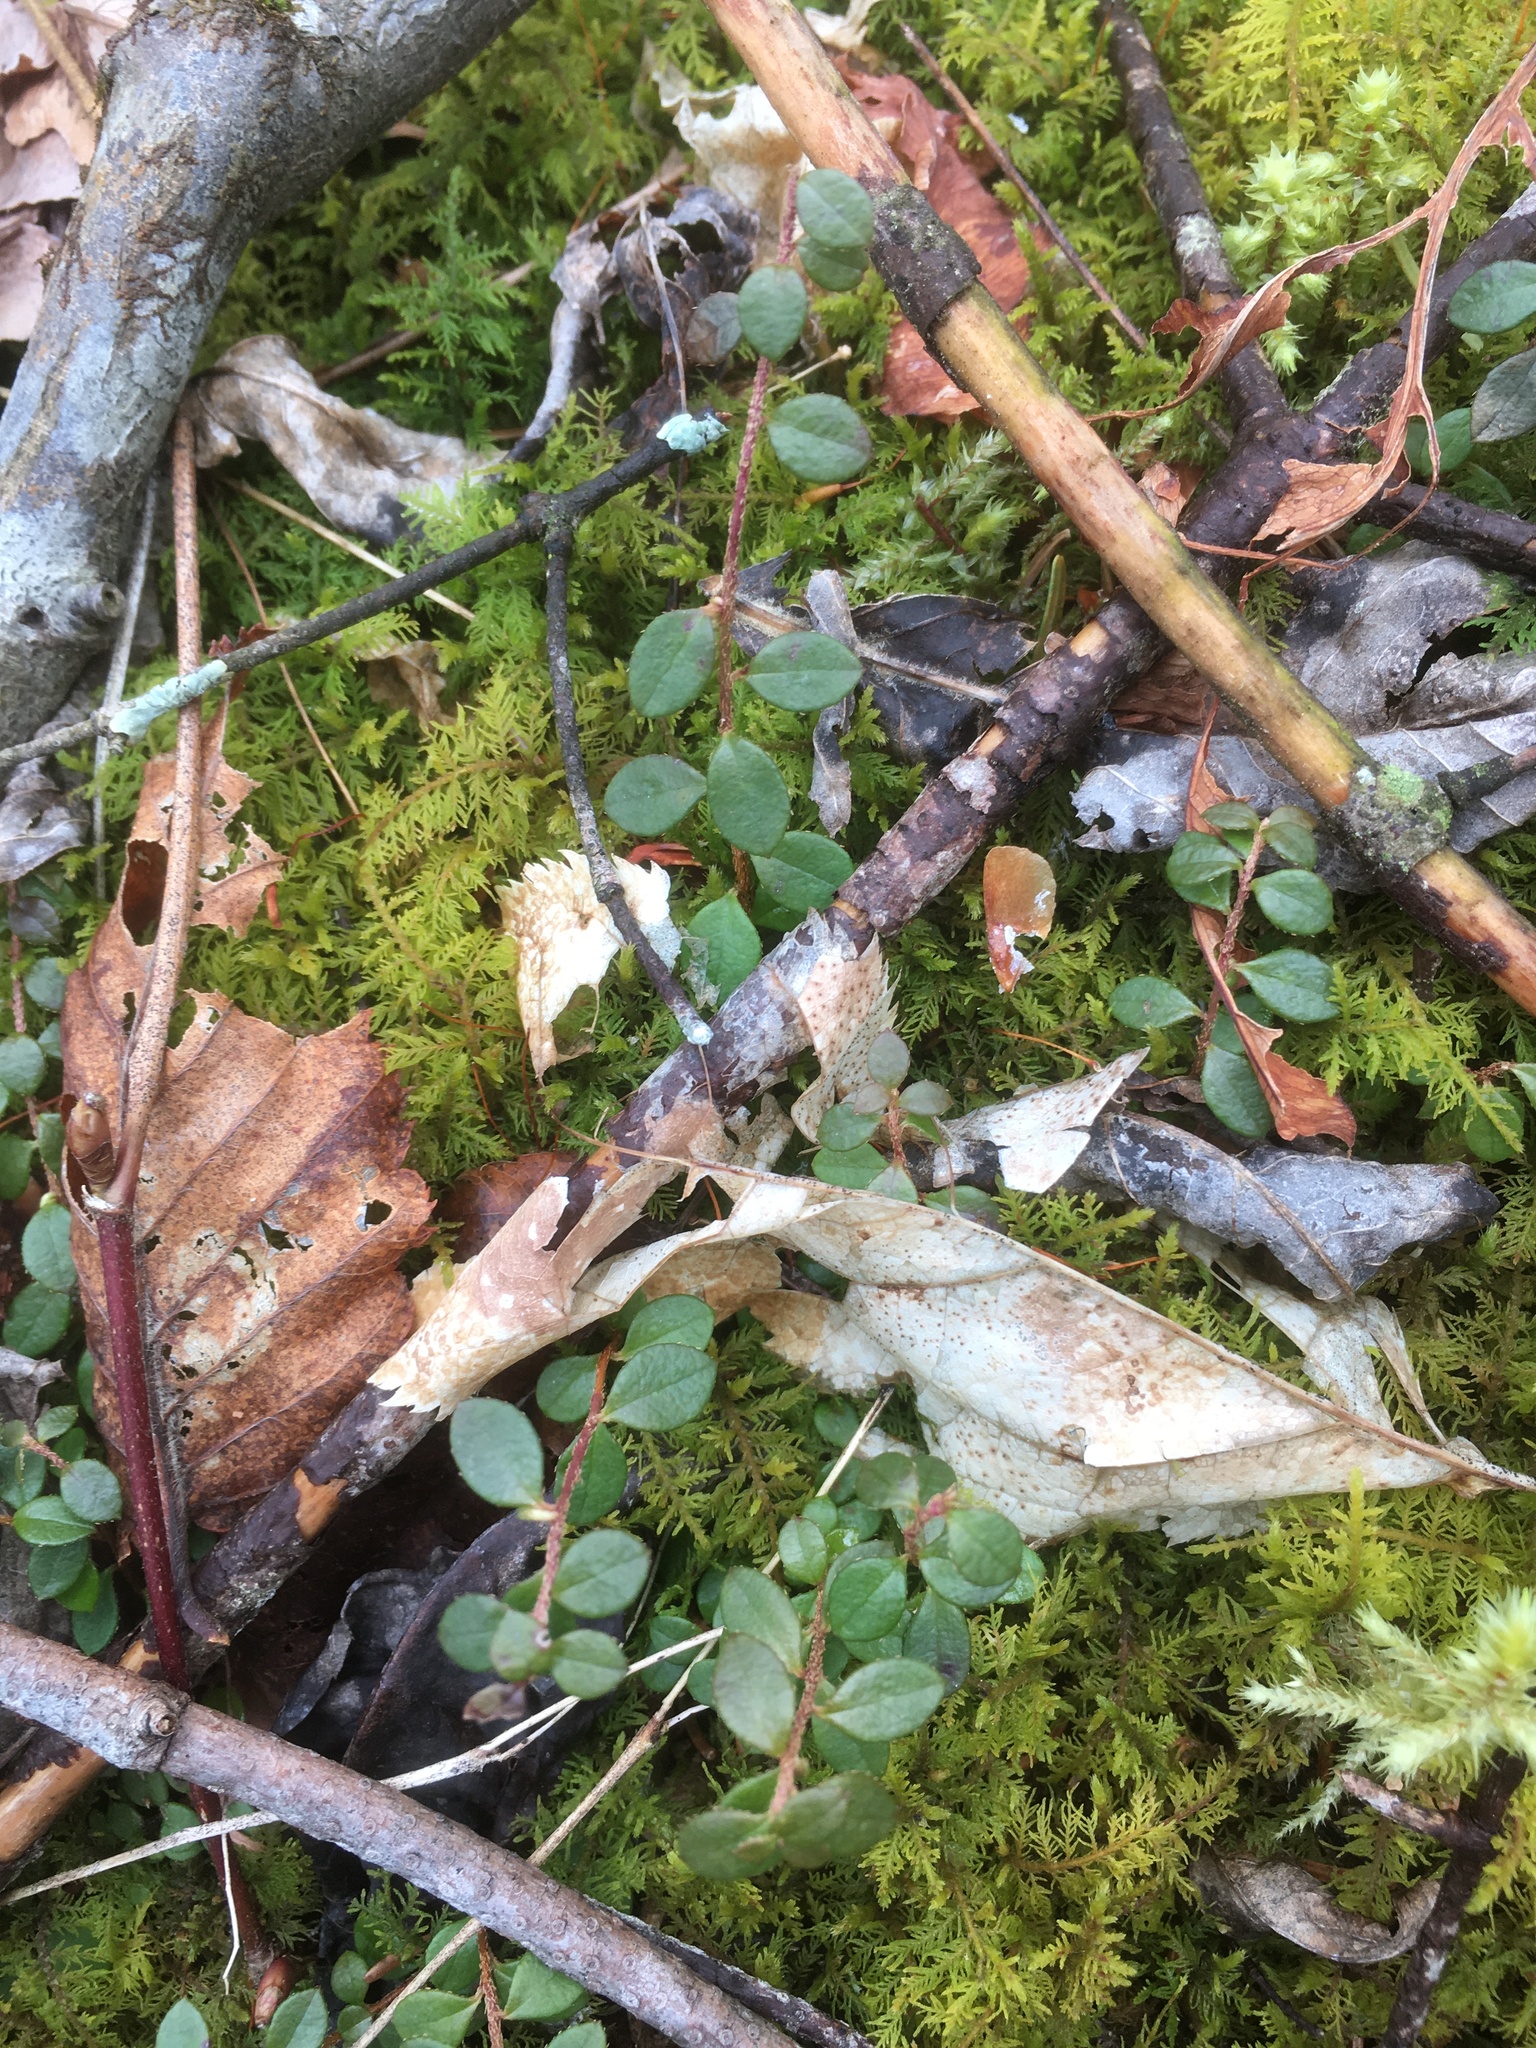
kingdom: Plantae
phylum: Tracheophyta
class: Magnoliopsida
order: Ericales
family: Ericaceae
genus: Gaultheria
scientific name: Gaultheria hispidula
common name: Cancer wintergreen
